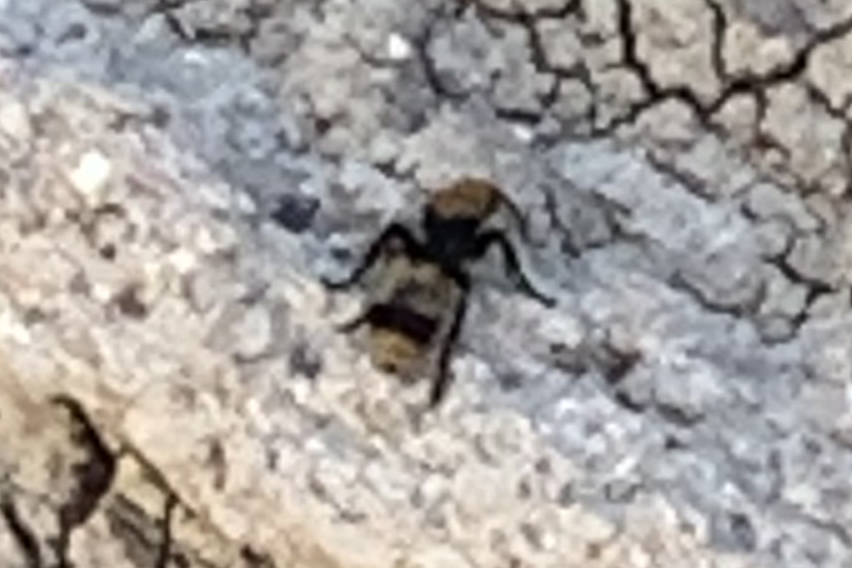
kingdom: Animalia
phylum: Arthropoda
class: Insecta
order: Hymenoptera
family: Mutillidae
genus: Dasymutilla
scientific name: Dasymutilla occidentalis
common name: Common eastern velvet ant
